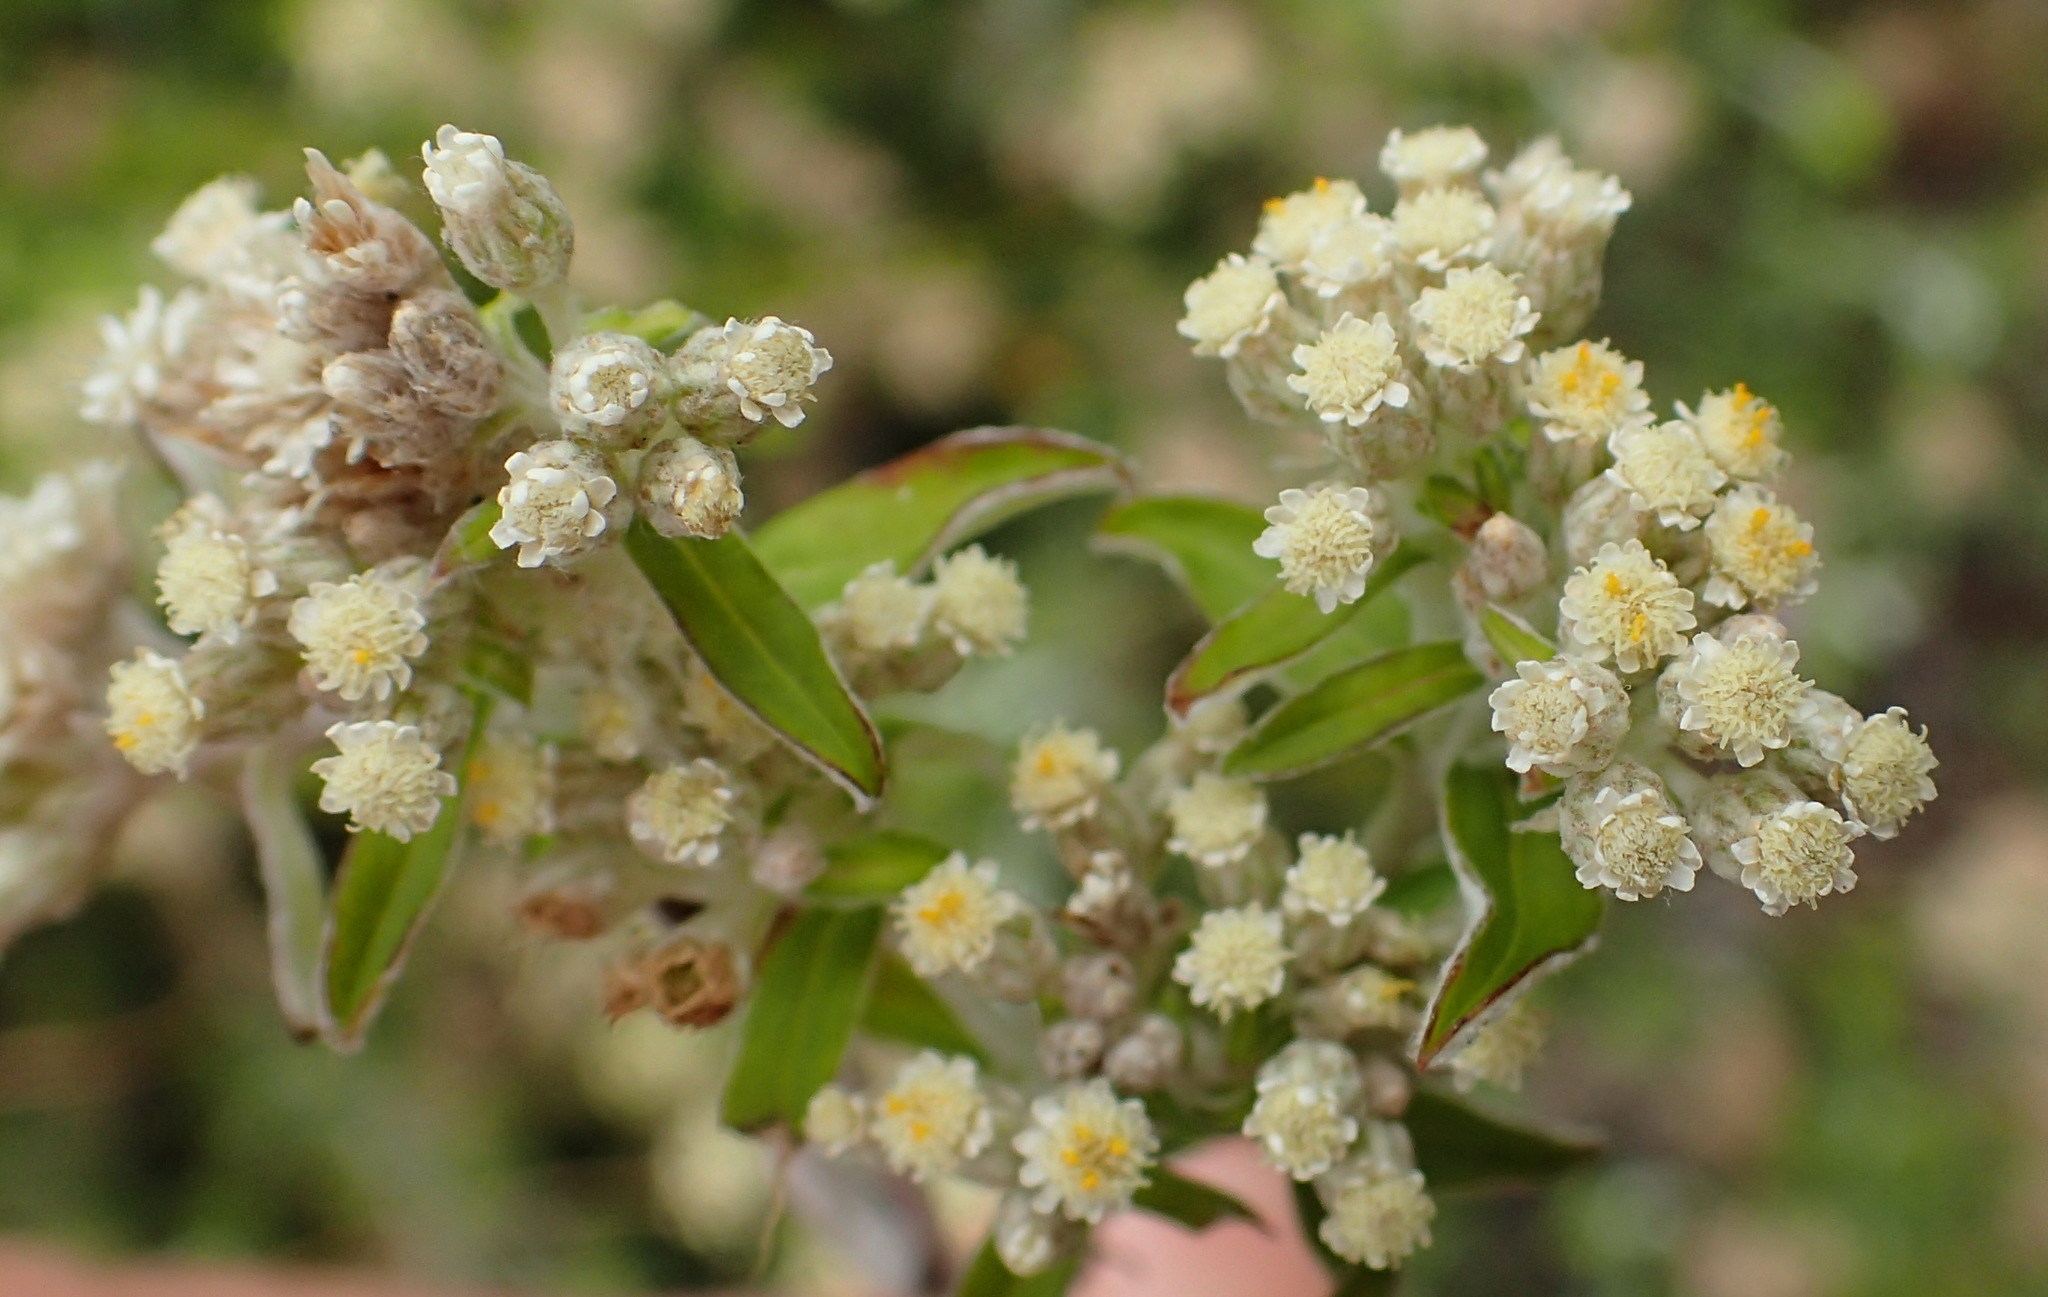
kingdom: Plantae
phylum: Tracheophyta
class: Magnoliopsida
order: Asterales
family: Asteraceae
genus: Plecostachys
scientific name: Plecostachys serpyllifolia
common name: Petite licorice
